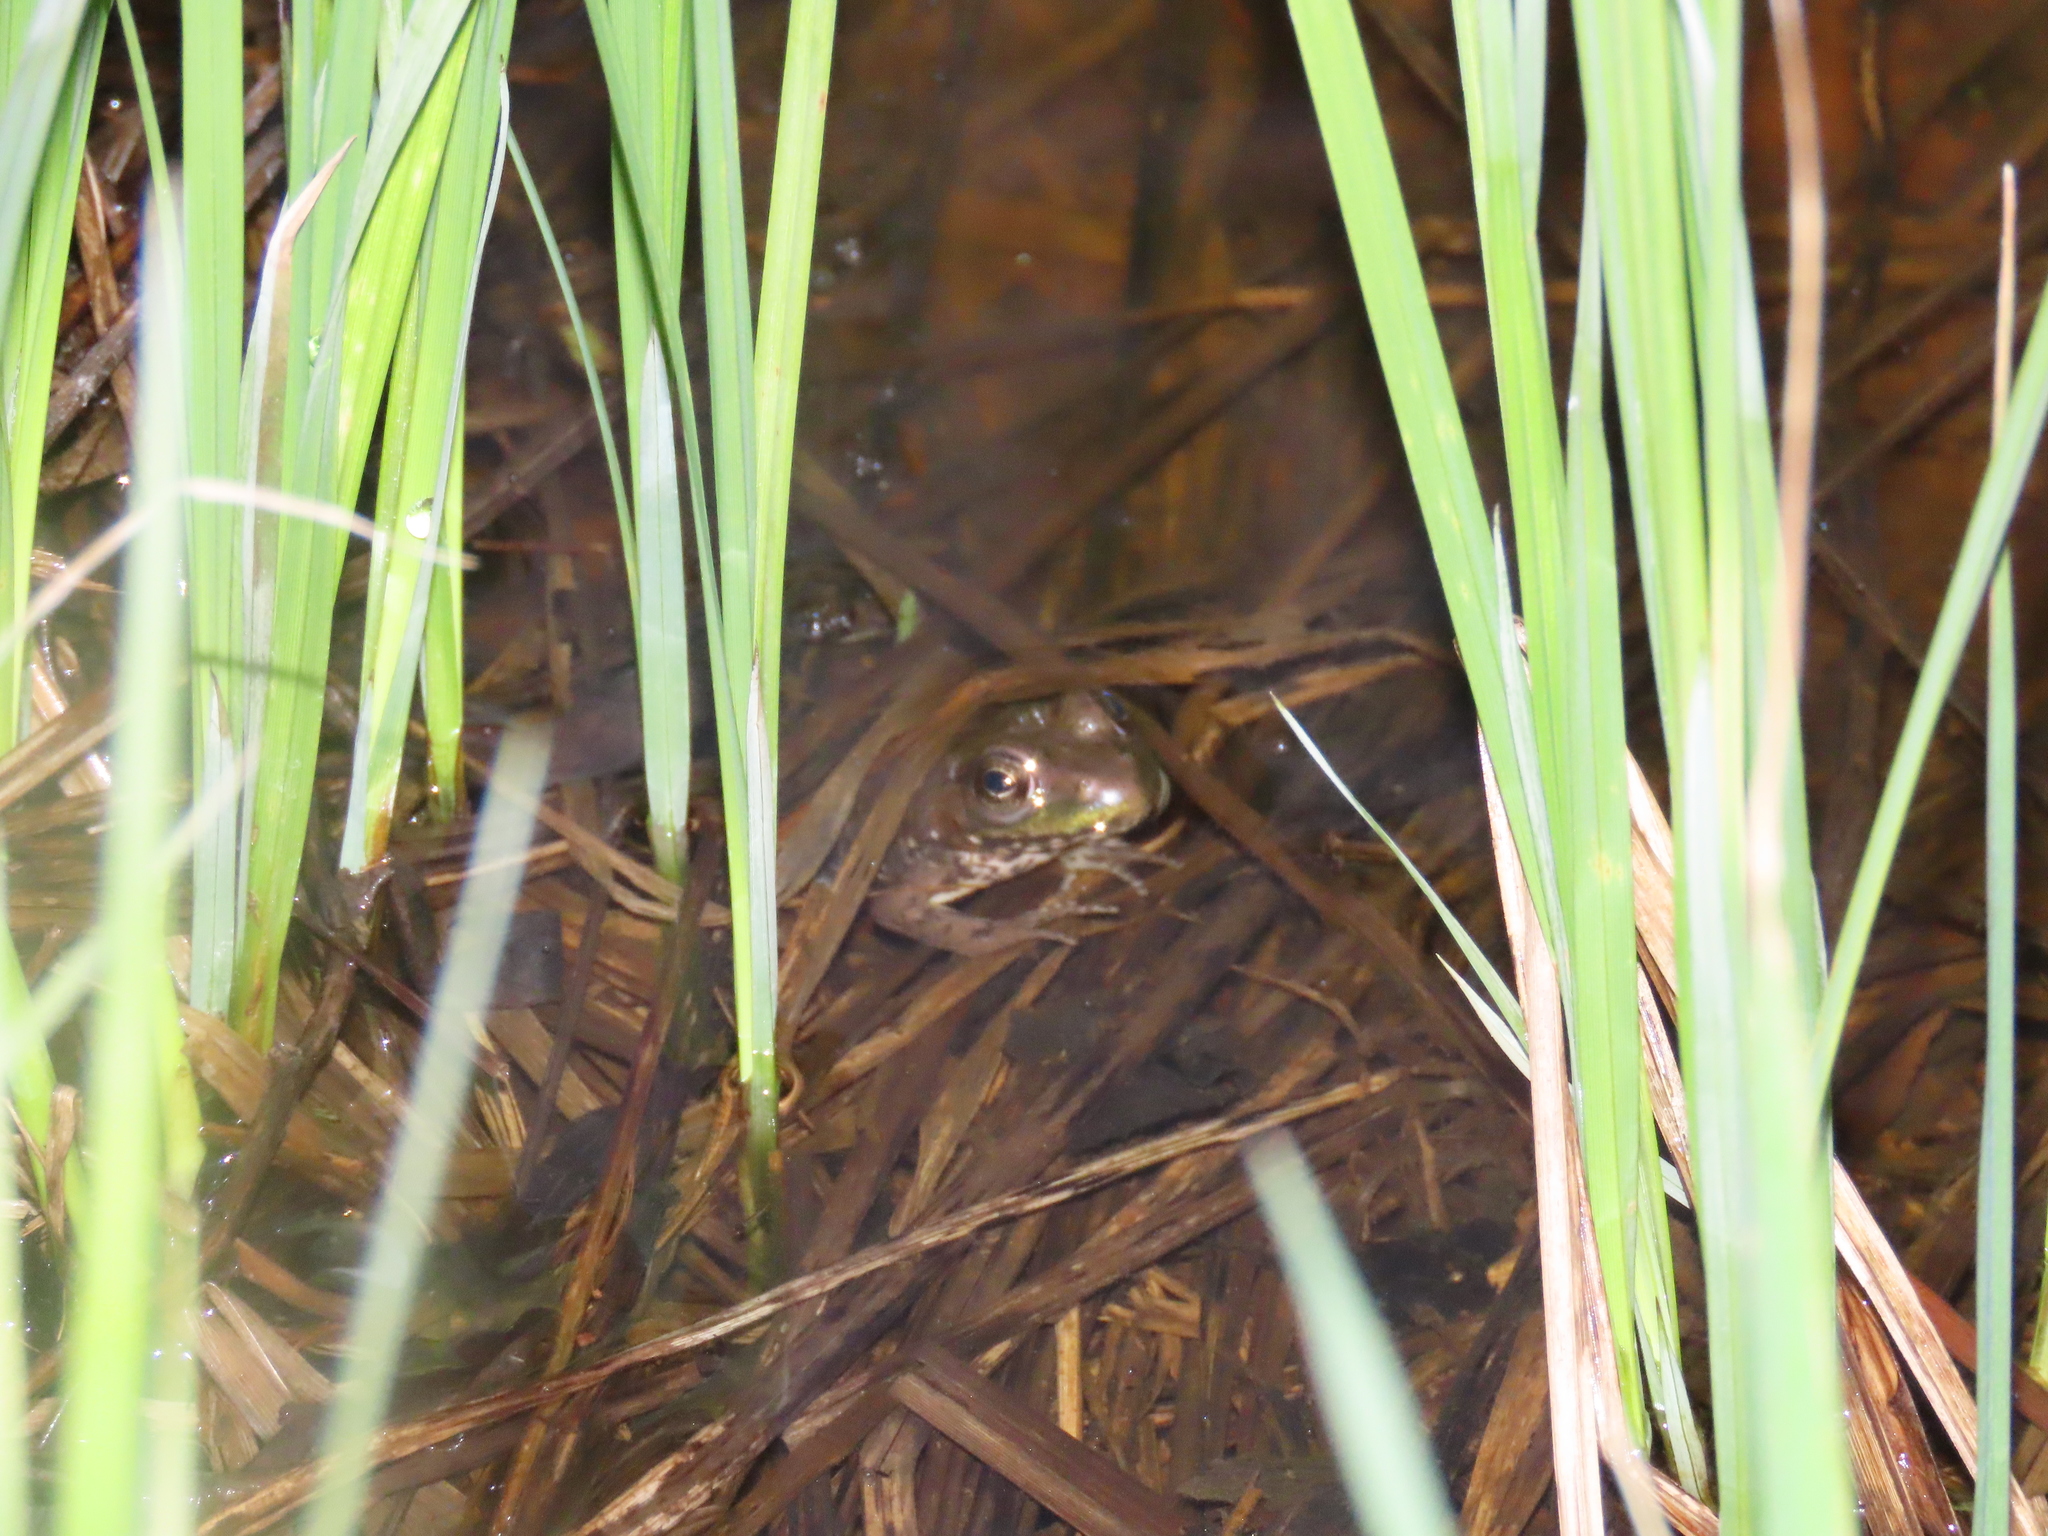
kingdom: Animalia
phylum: Chordata
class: Amphibia
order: Anura
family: Ranidae
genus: Lithobates
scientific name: Lithobates clamitans
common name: Green frog
